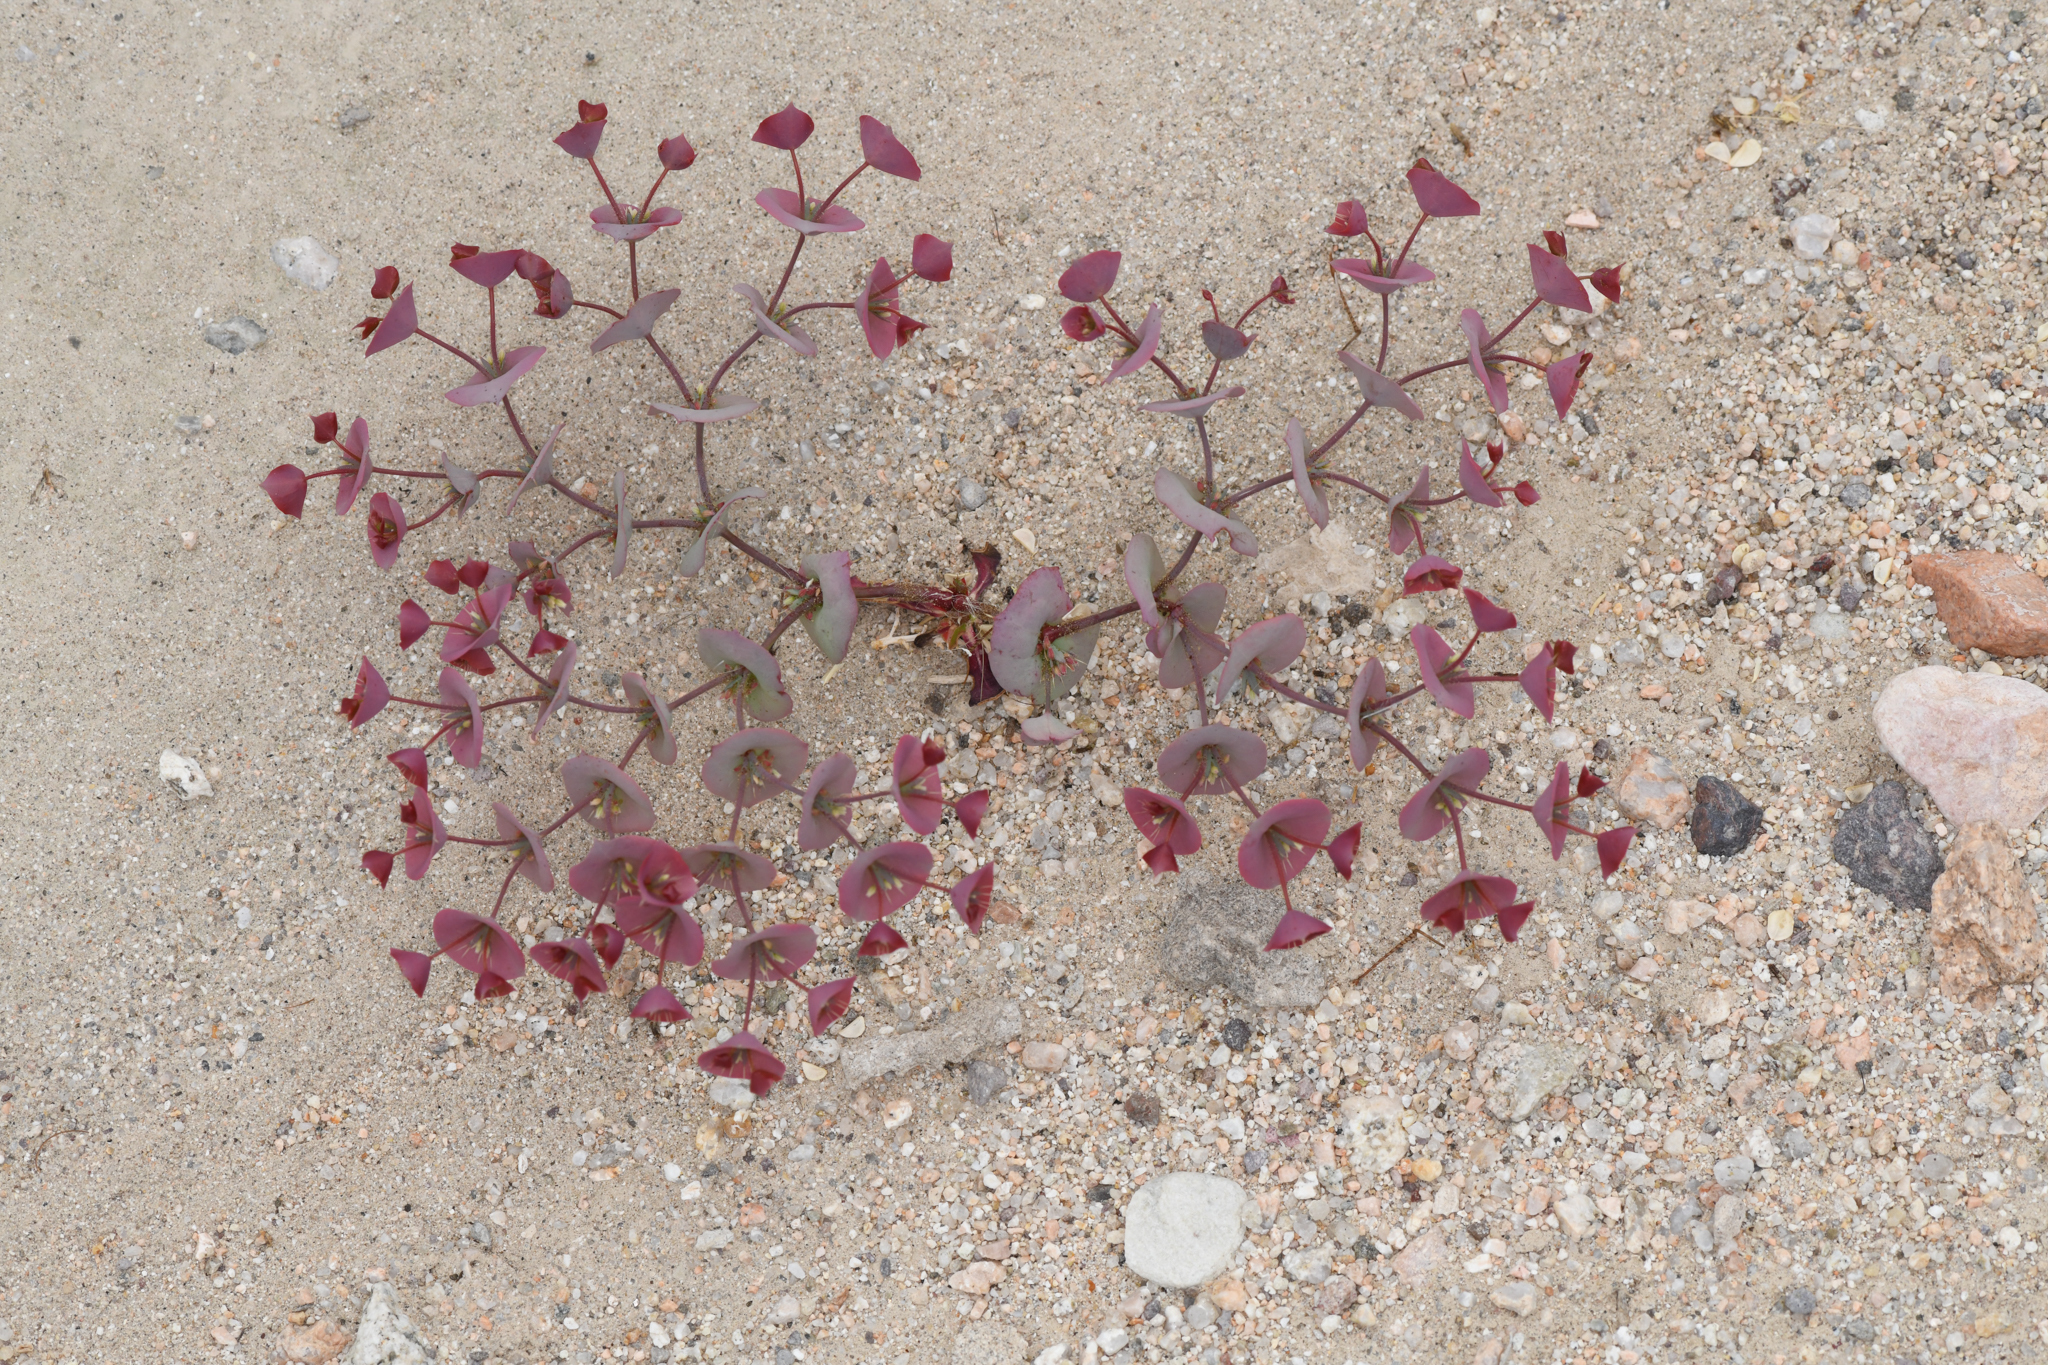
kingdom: Plantae
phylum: Tracheophyta
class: Magnoliopsida
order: Caryophyllales
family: Polygonaceae
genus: Oxytheca
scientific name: Oxytheca perfoliata
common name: Round-leaf puncturebract
